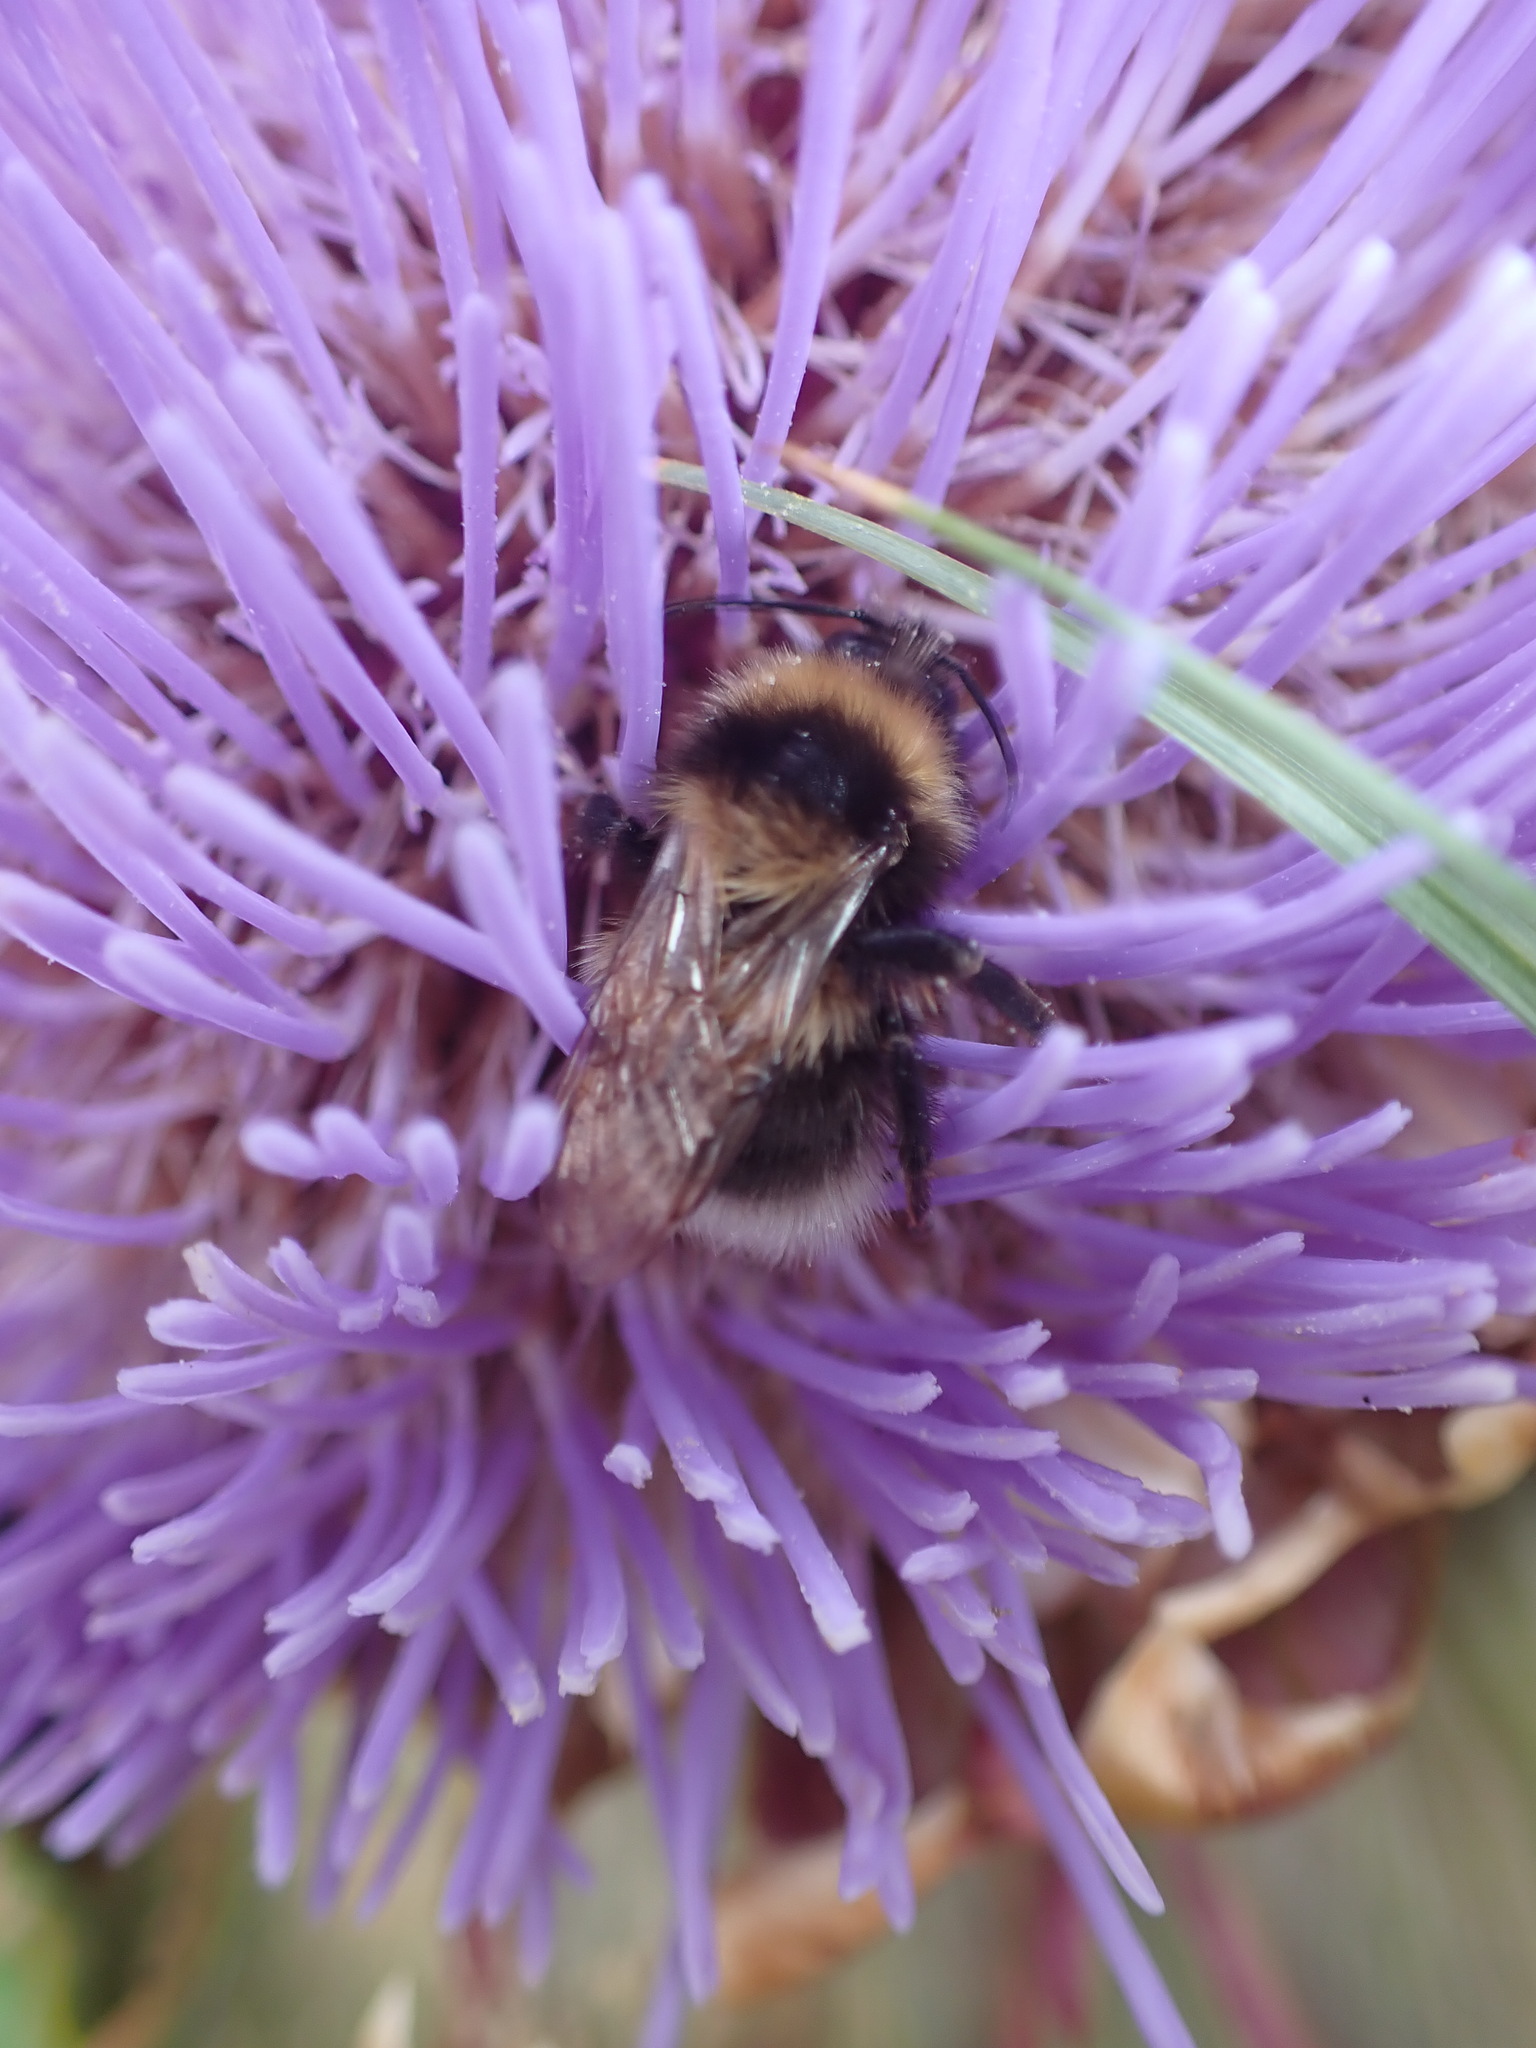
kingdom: Animalia
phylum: Arthropoda
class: Insecta
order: Hymenoptera
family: Apidae
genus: Megabombus
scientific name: Megabombus
